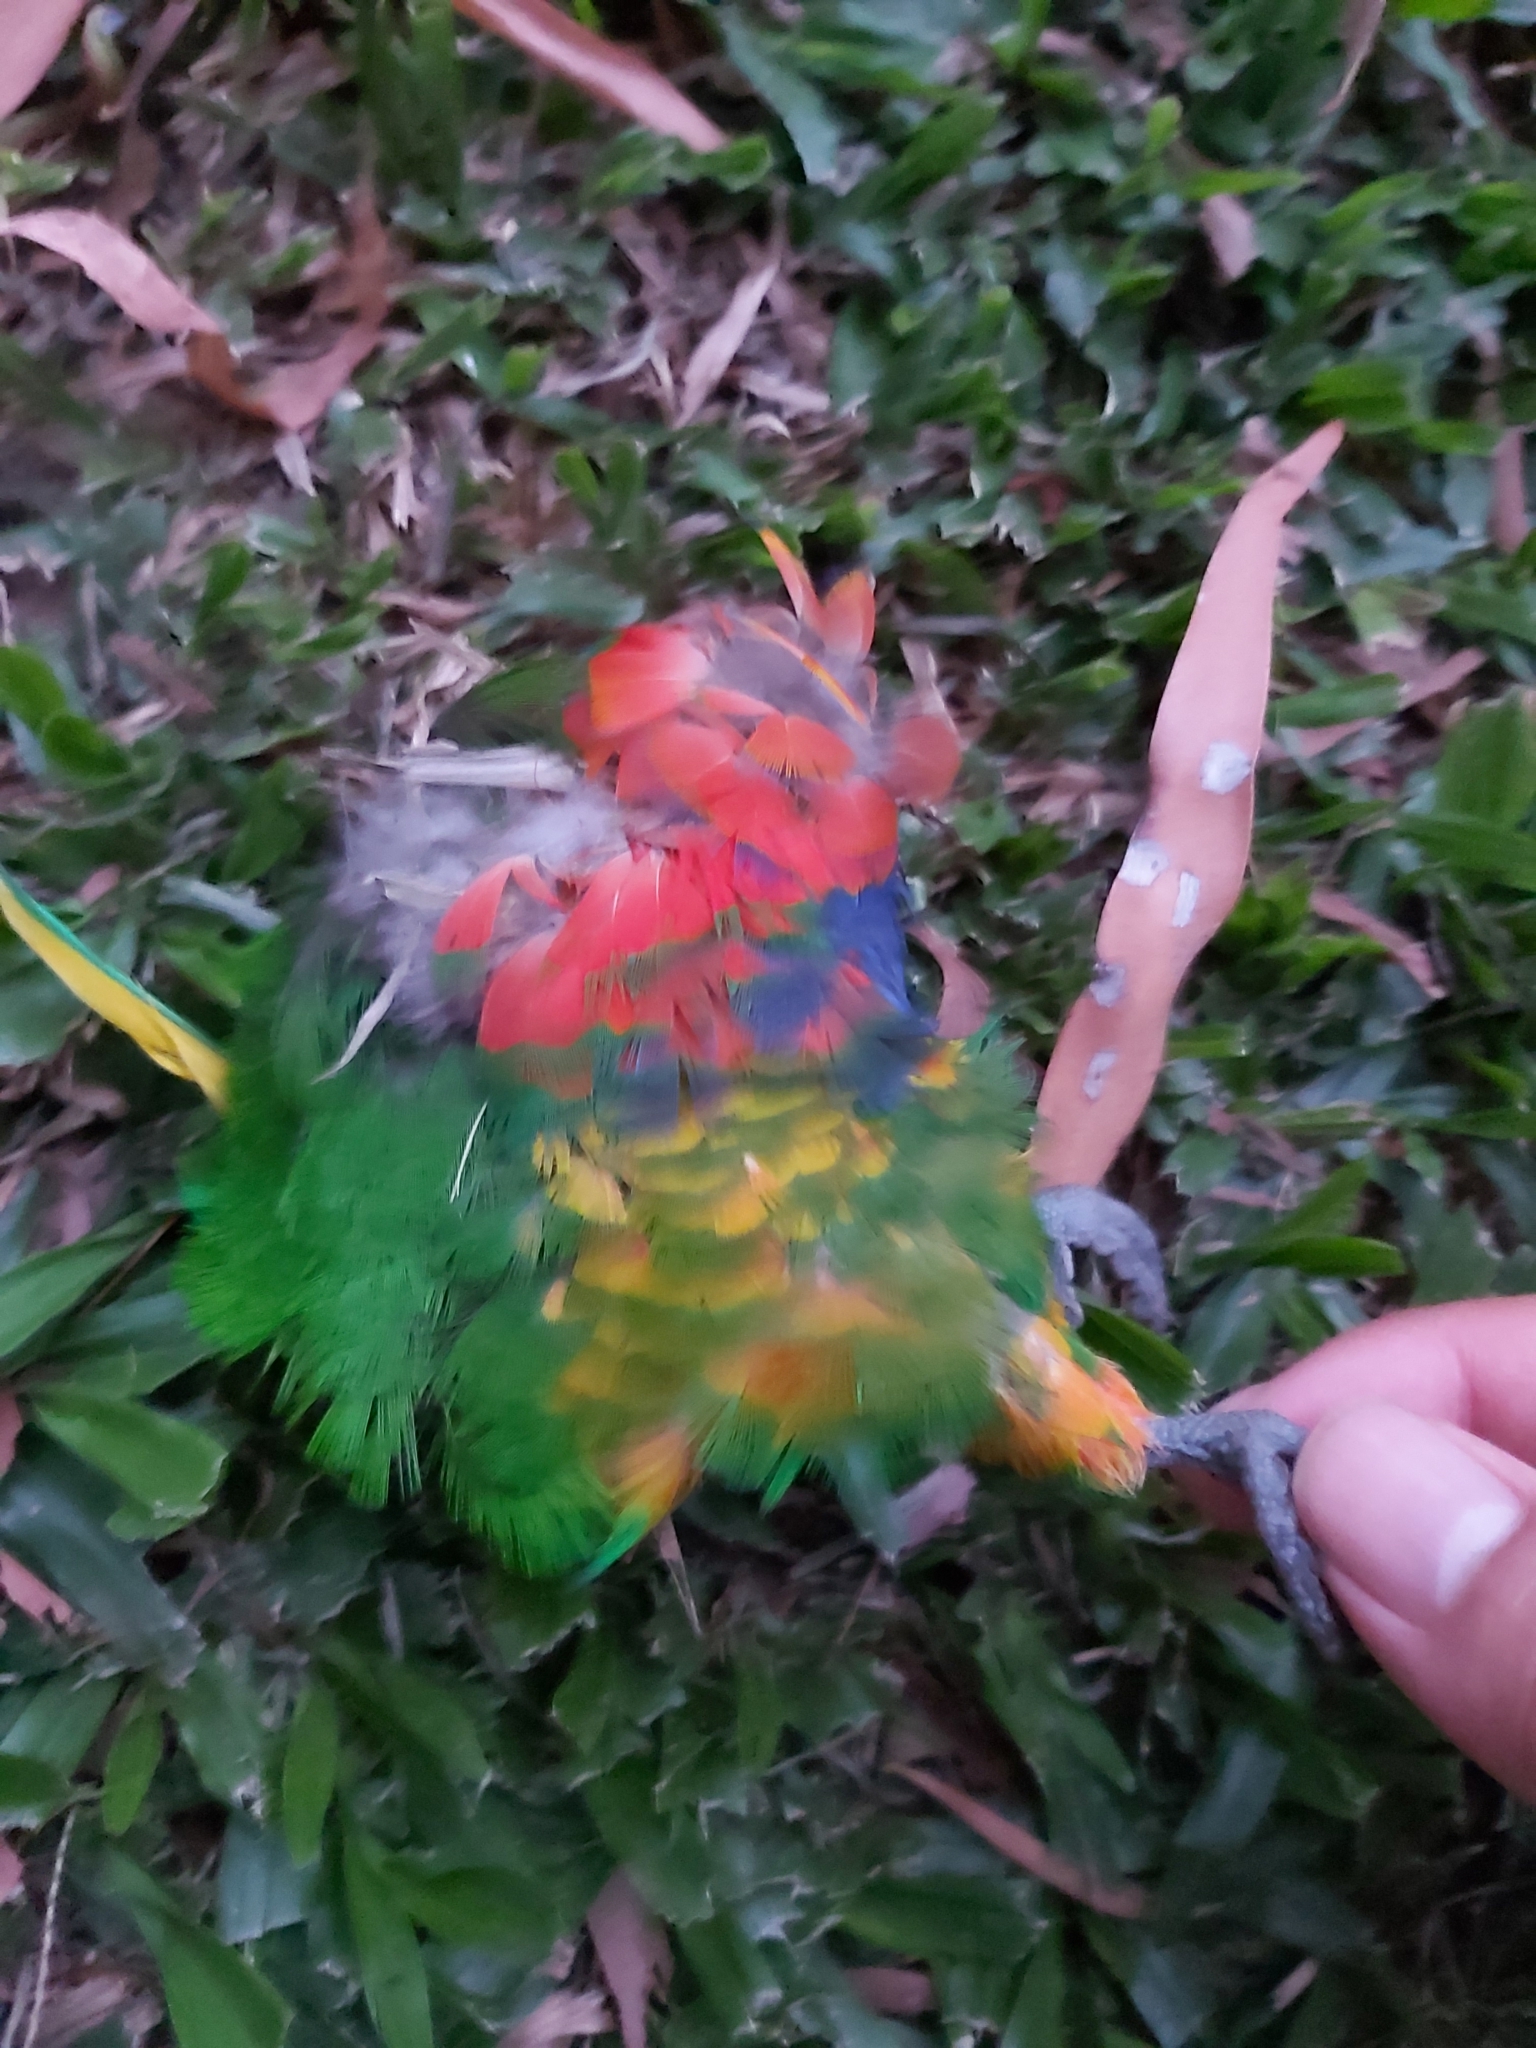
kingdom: Animalia
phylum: Chordata
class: Aves
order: Psittaciformes
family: Psittacidae
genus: Trichoglossus
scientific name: Trichoglossus haematodus
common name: Coconut lorikeet
